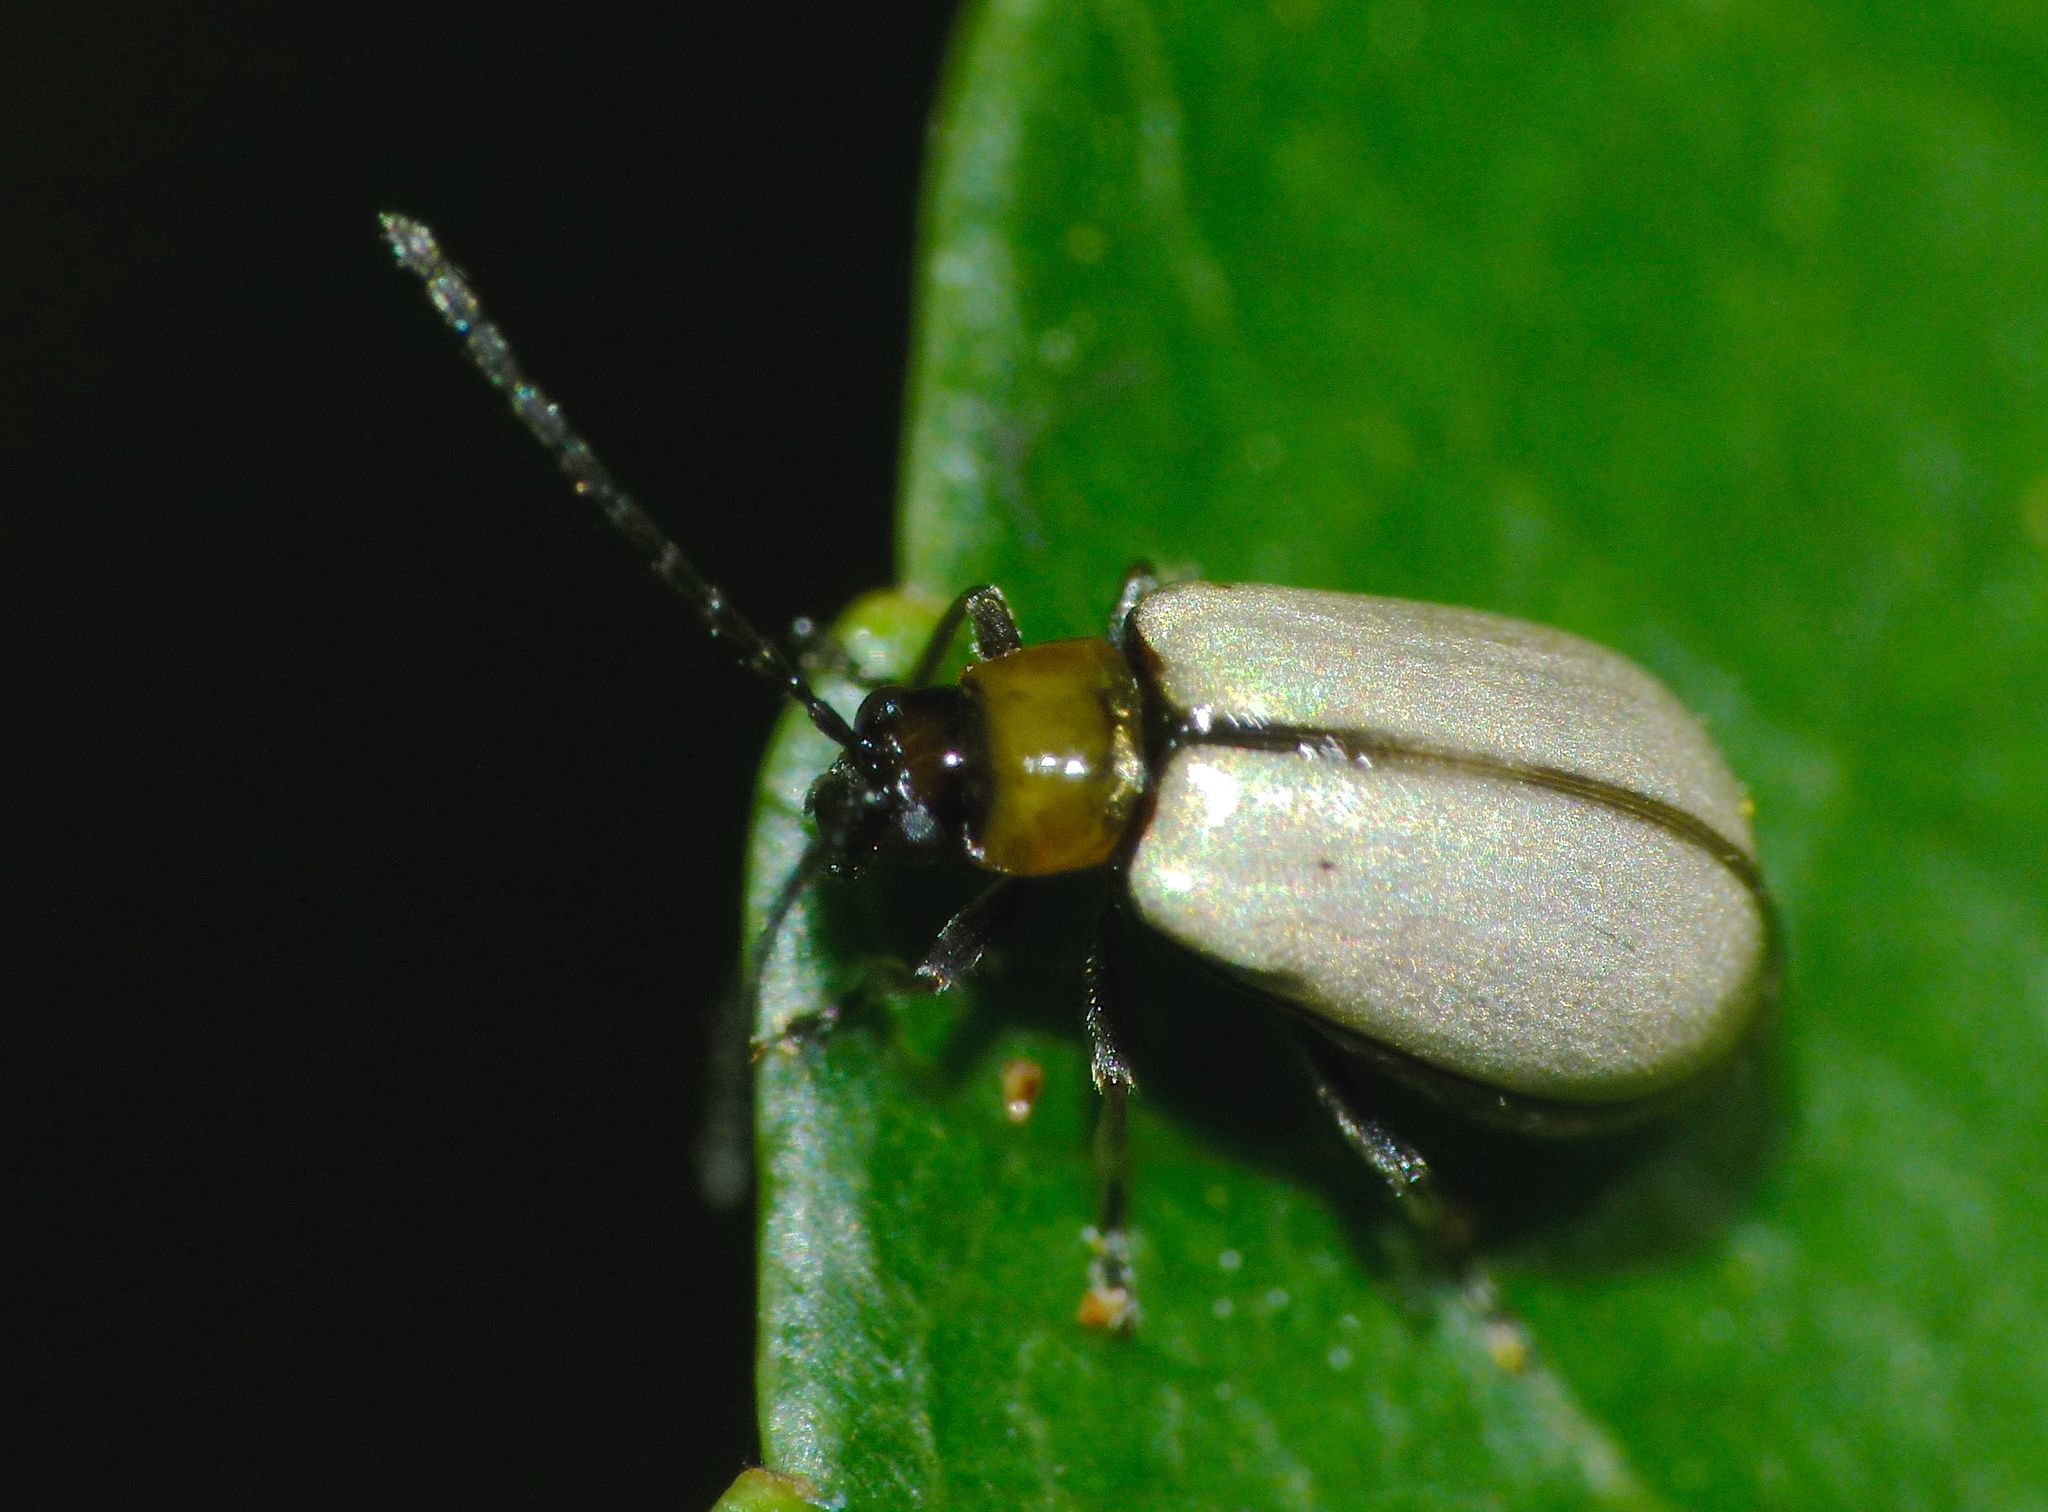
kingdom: Animalia
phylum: Arthropoda
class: Insecta
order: Coleoptera
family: Chrysomelidae
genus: Adoxia
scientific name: Adoxia
